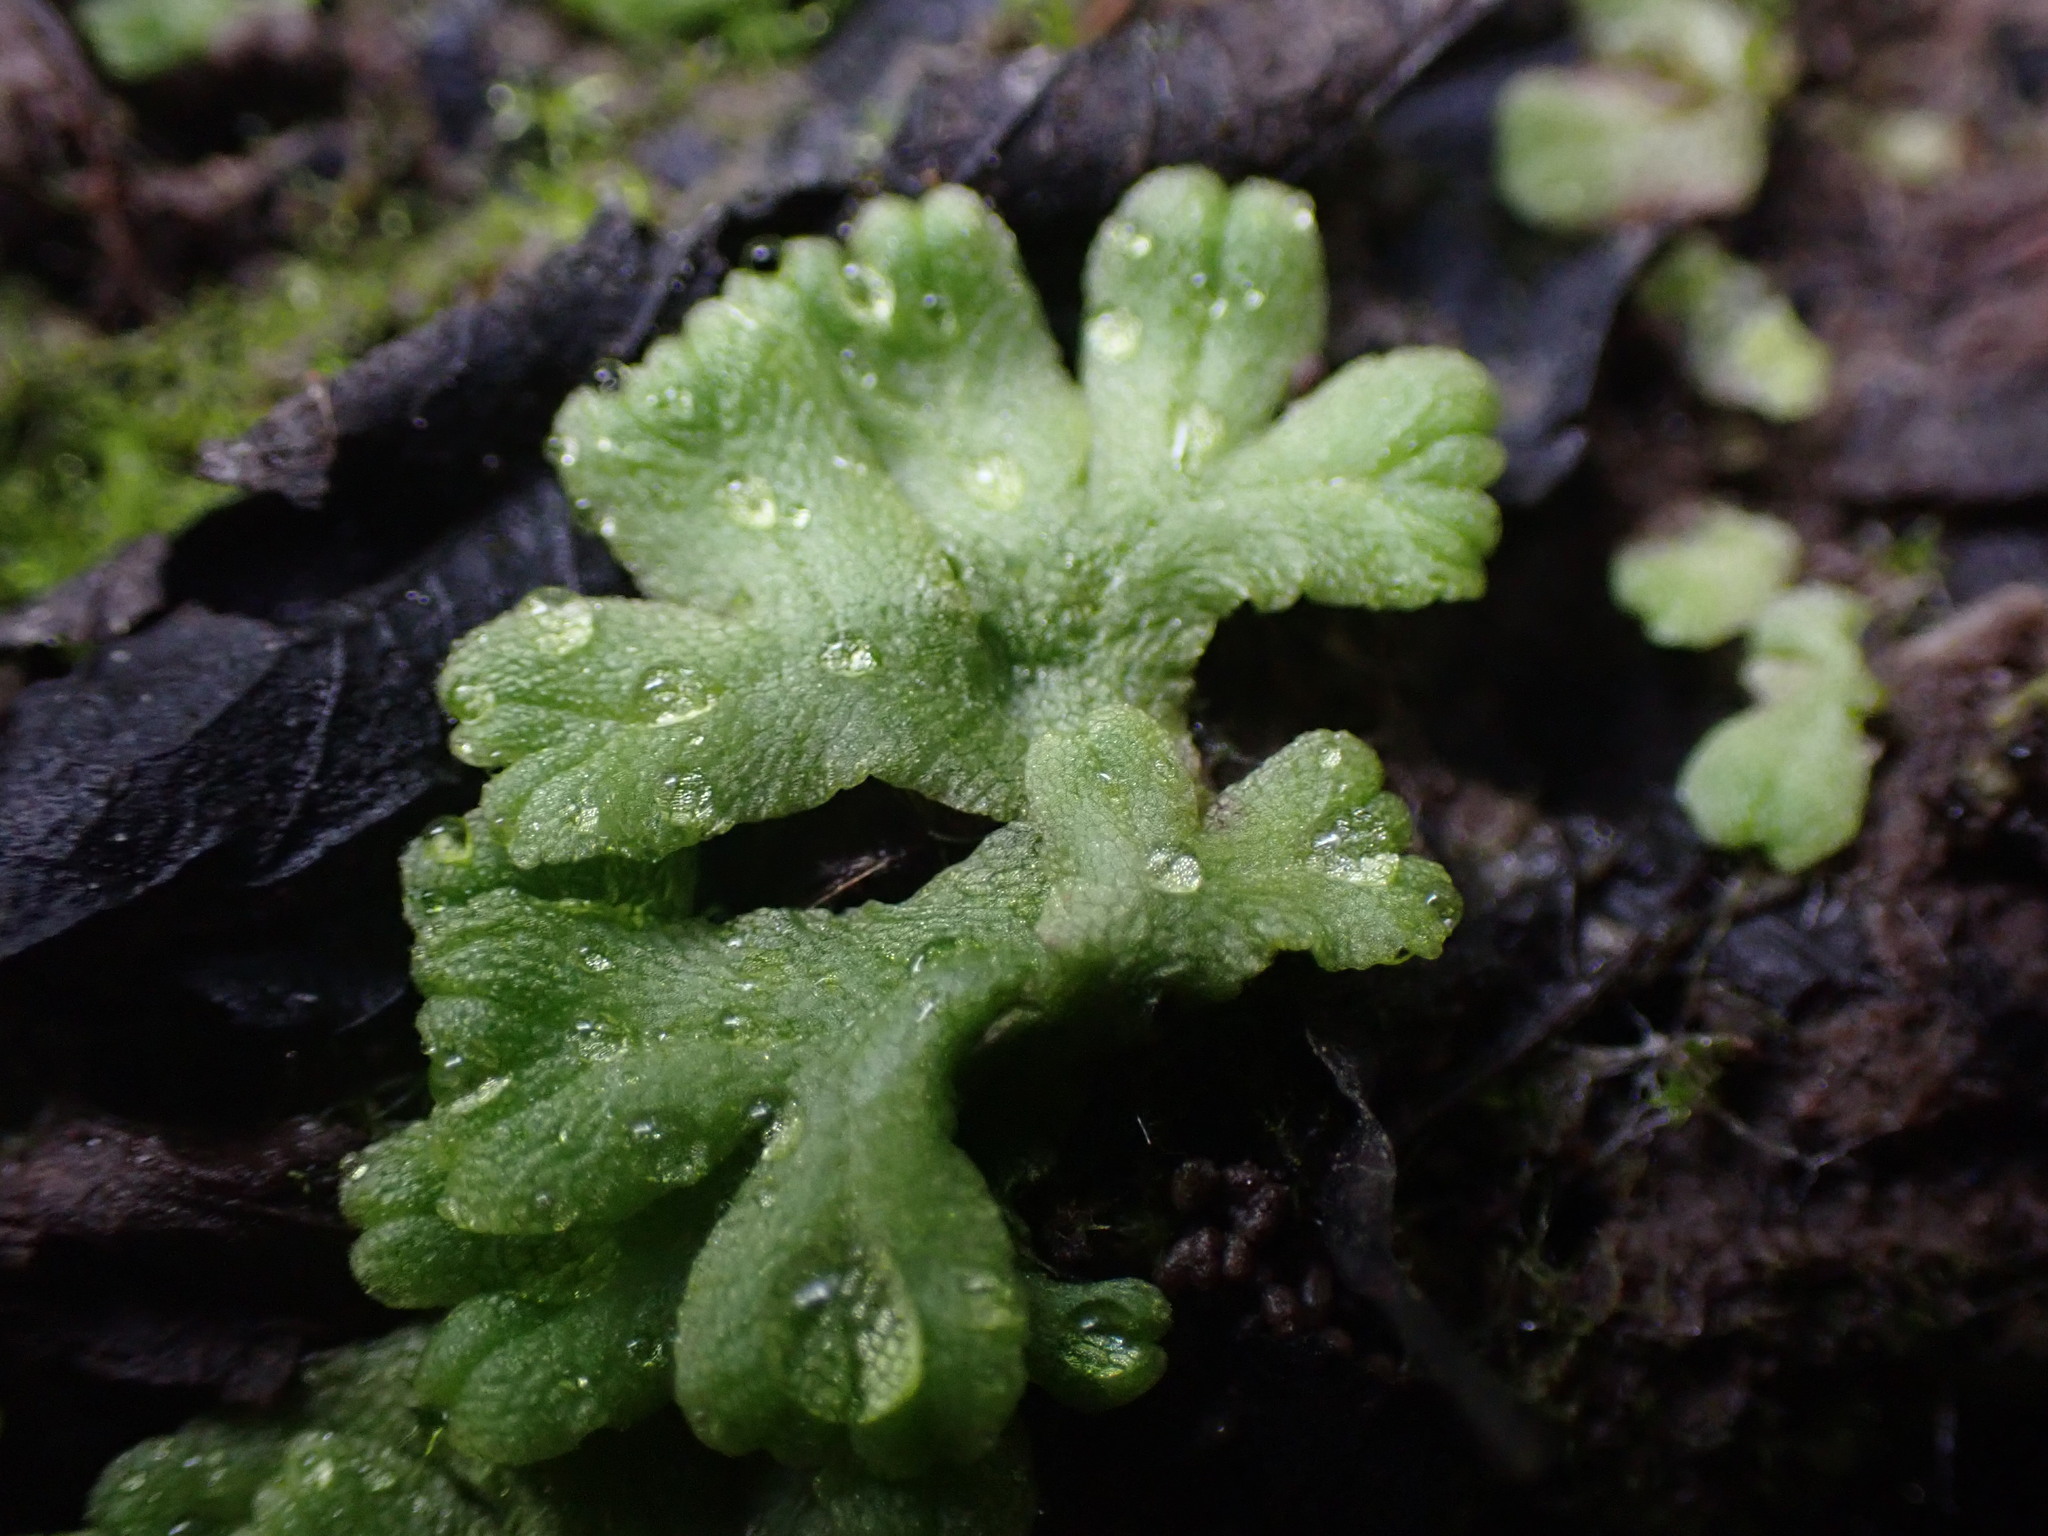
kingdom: Plantae
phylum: Marchantiophyta
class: Marchantiopsida
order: Marchantiales
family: Ricciaceae
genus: Ricciocarpos
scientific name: Ricciocarpos natans
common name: Purple-fringed liverwort
